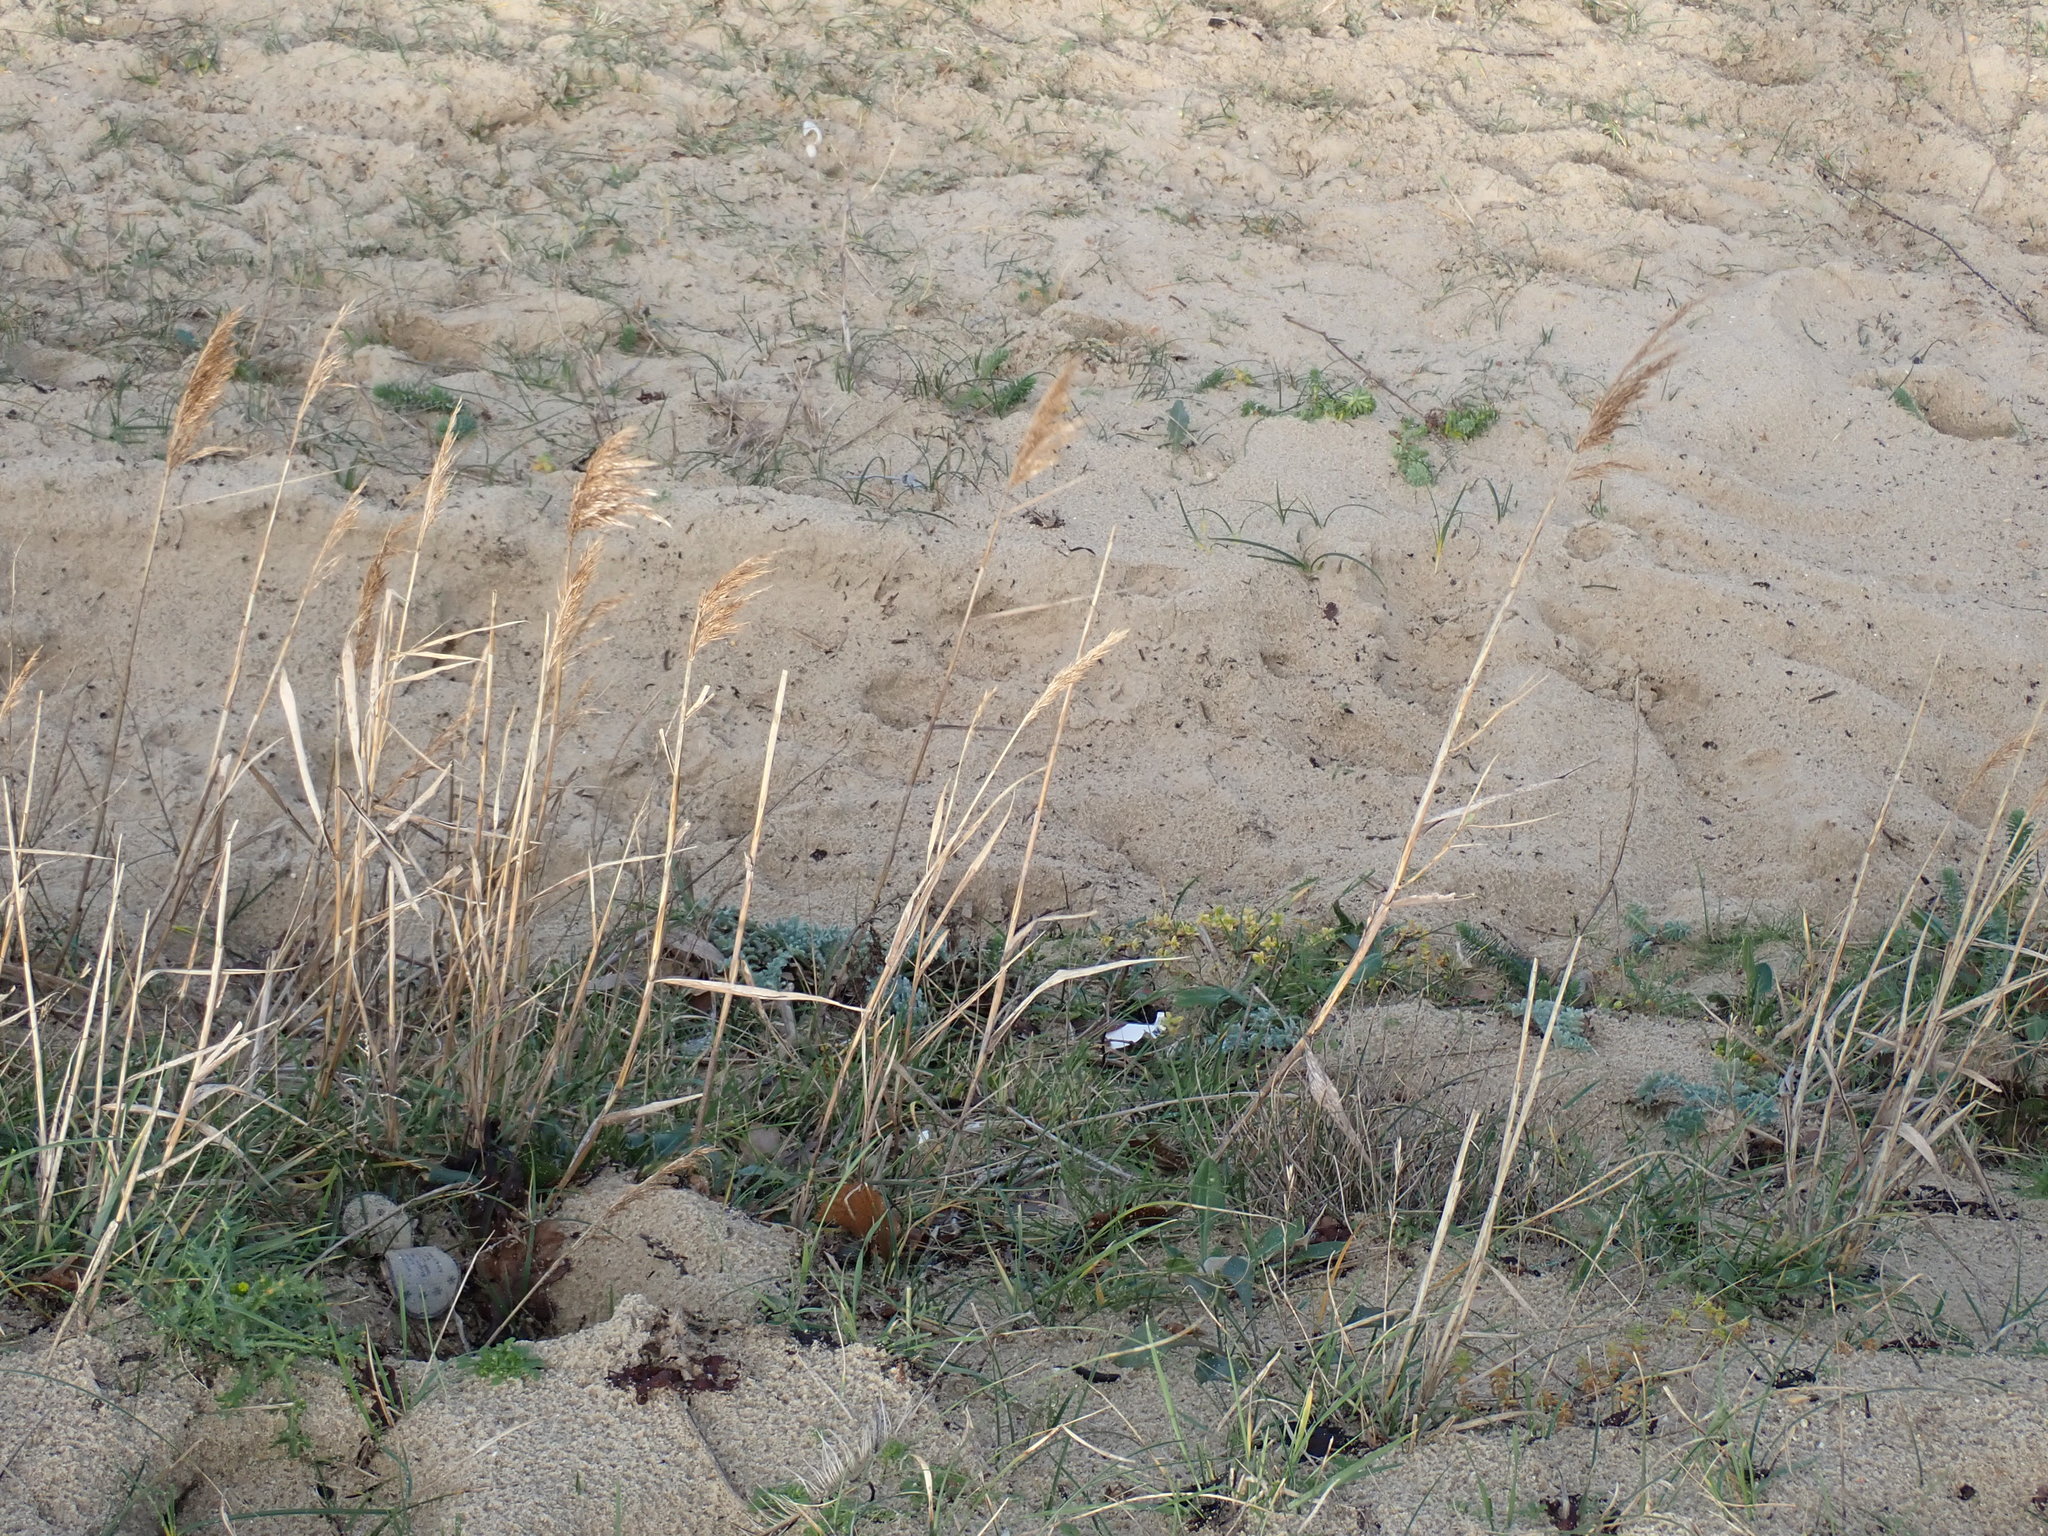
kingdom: Plantae
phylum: Tracheophyta
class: Liliopsida
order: Poales
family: Poaceae
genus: Phragmites
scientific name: Phragmites australis
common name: Common reed
